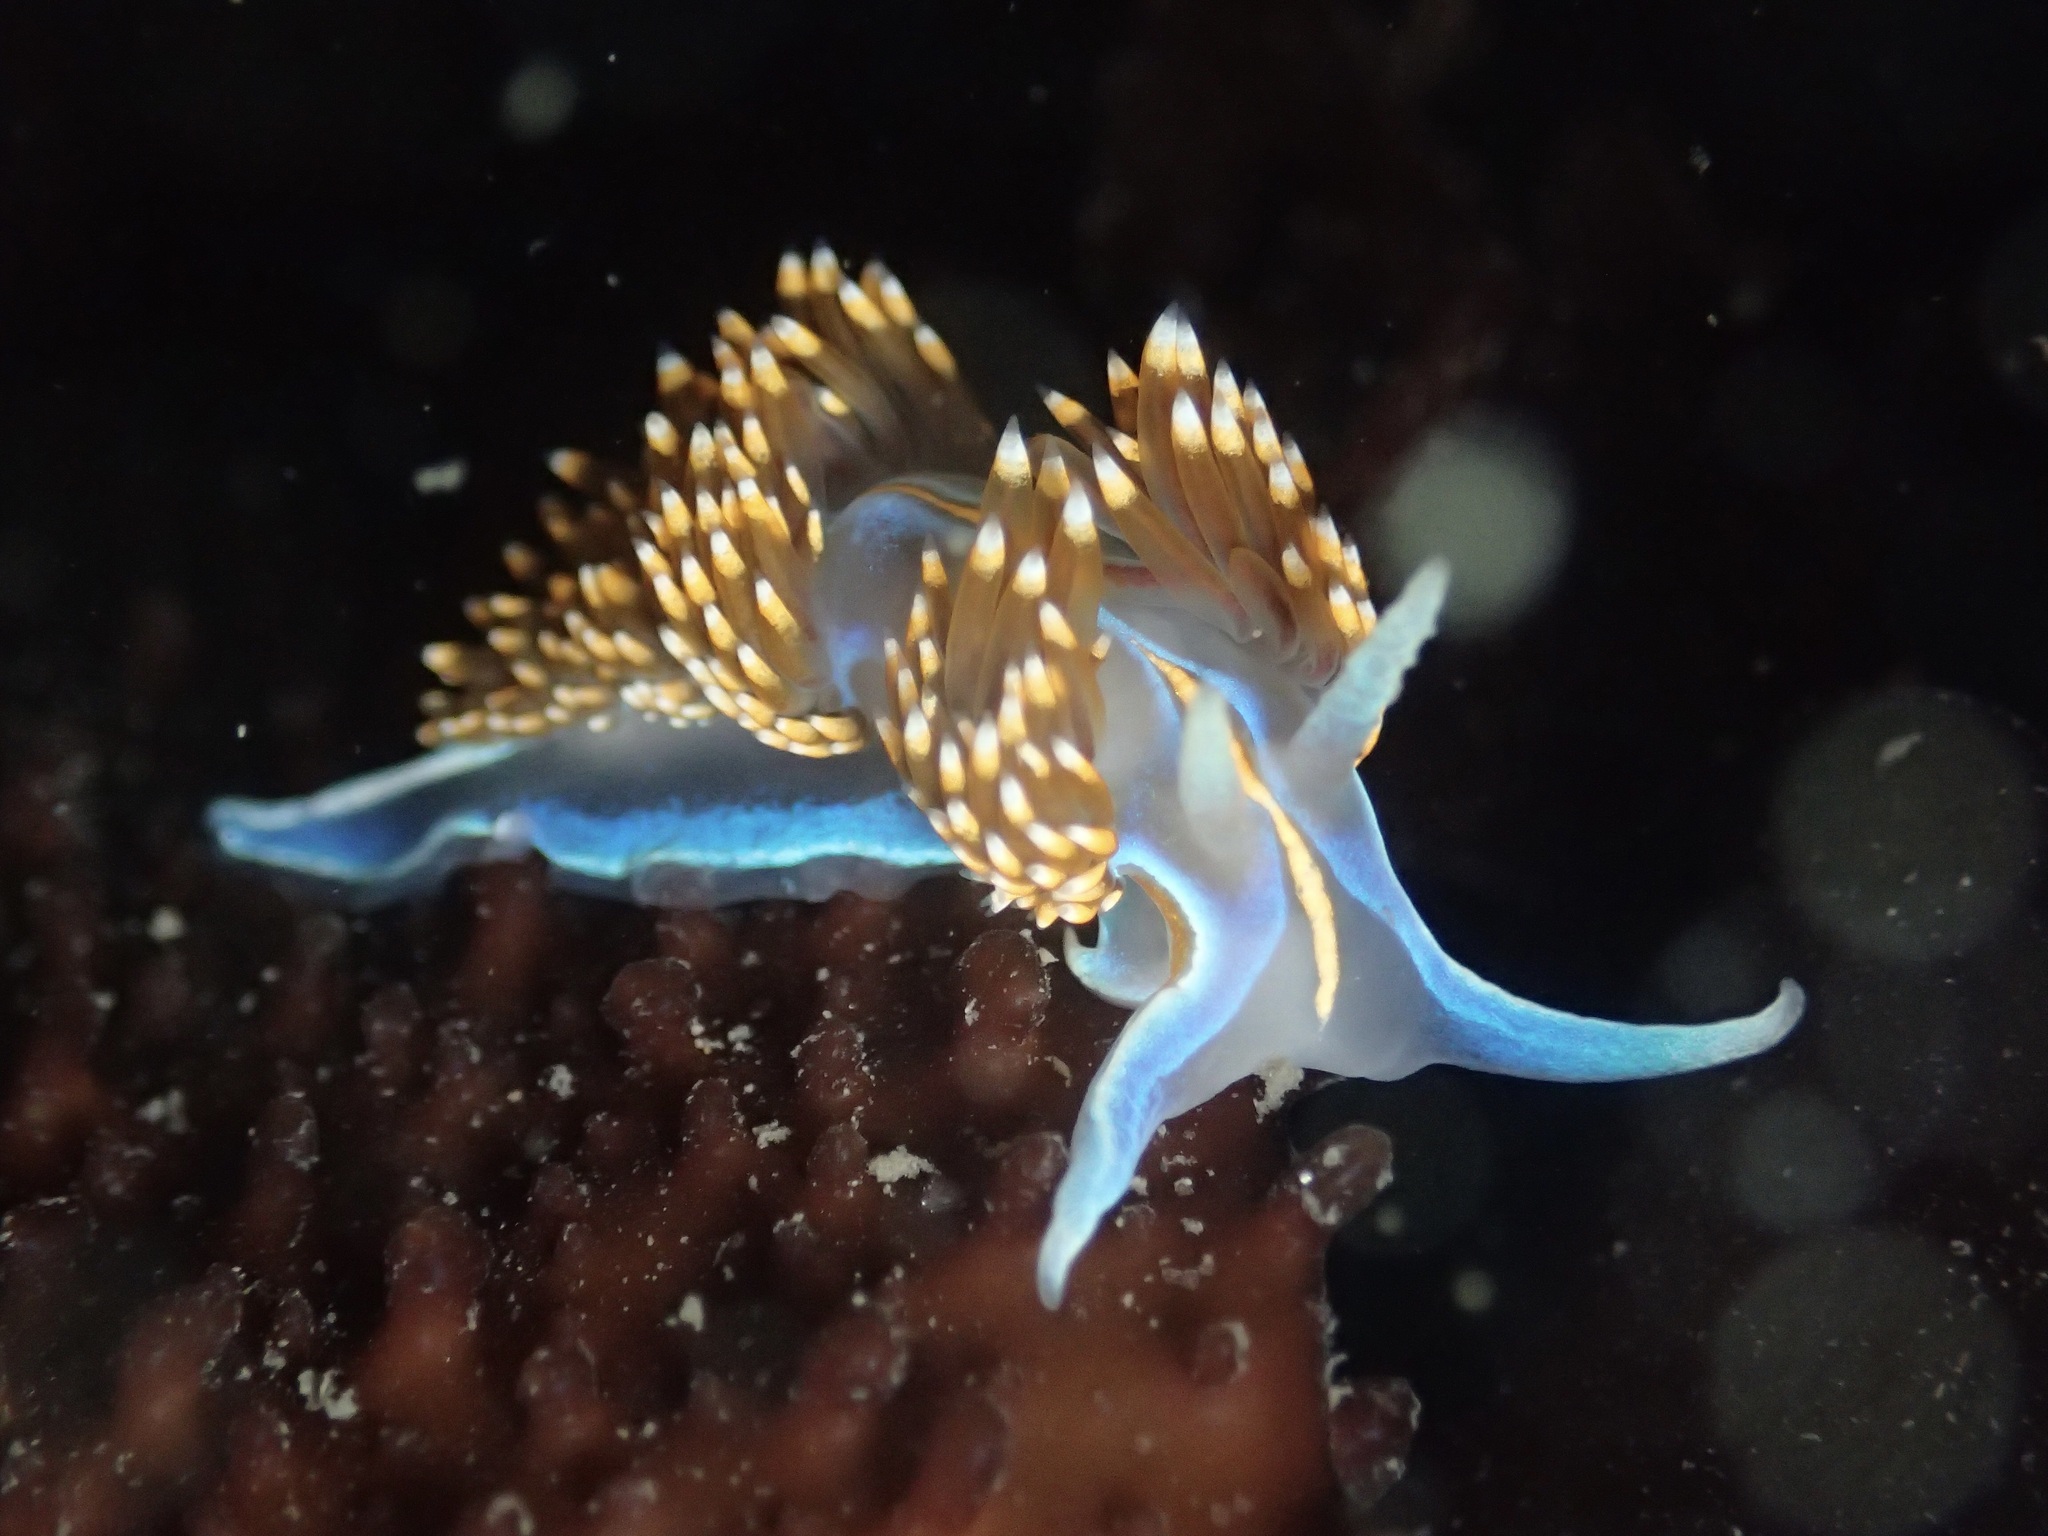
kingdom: Animalia
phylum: Mollusca
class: Gastropoda
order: Nudibranchia
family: Myrrhinidae
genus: Hermissenda
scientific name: Hermissenda opalescens
